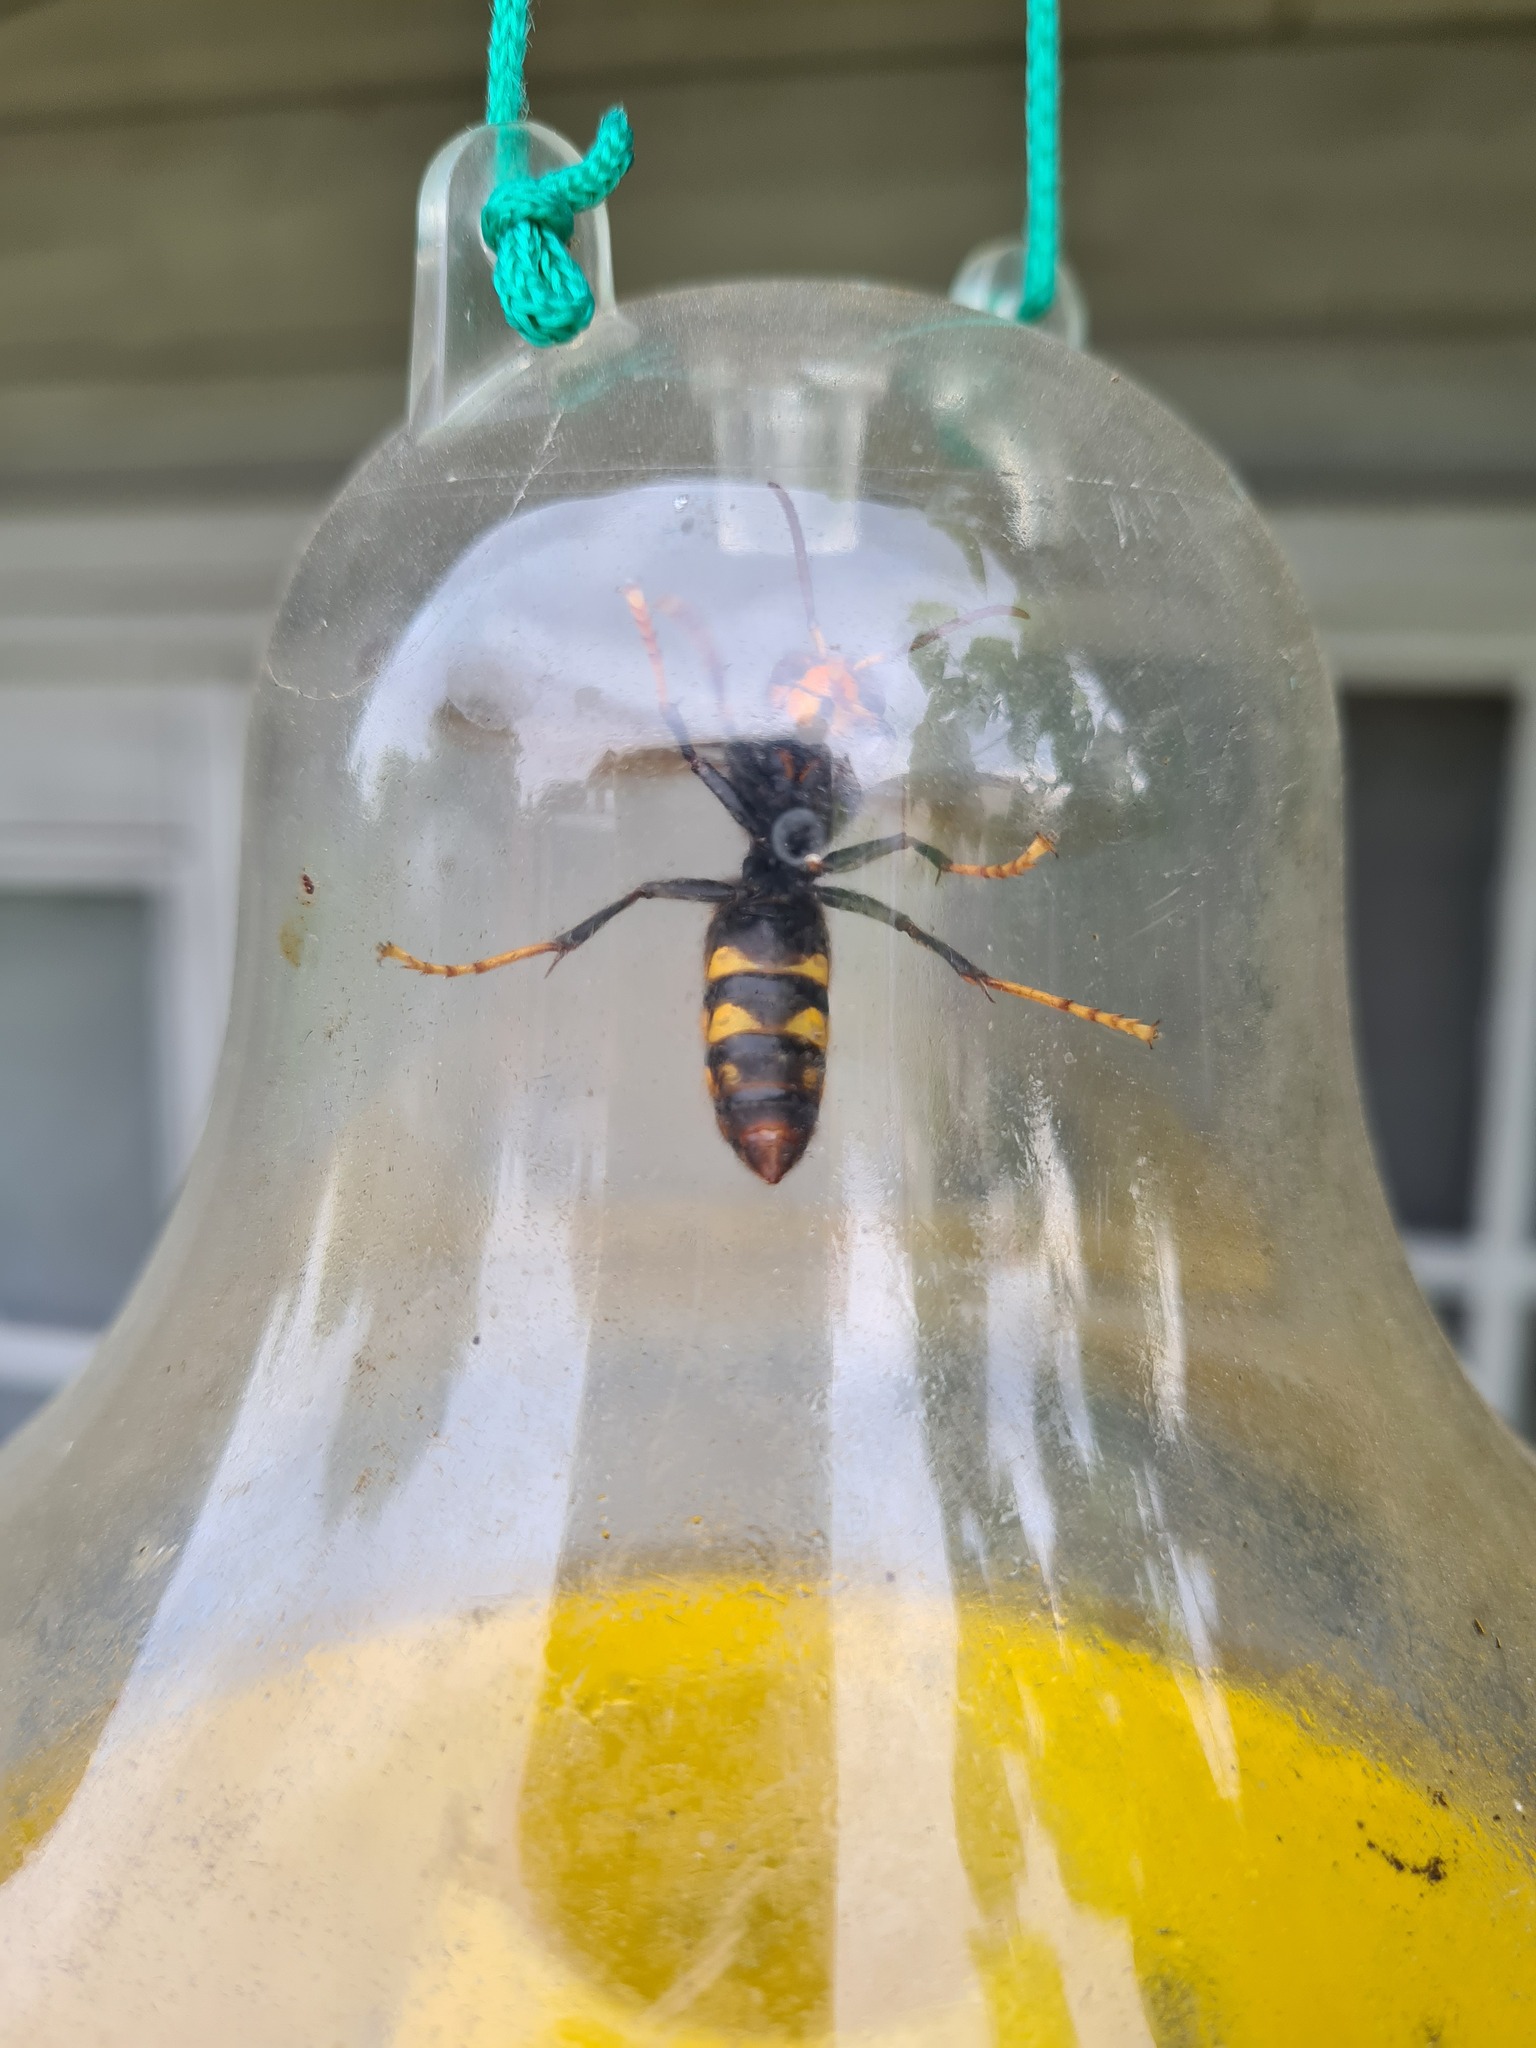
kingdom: Animalia
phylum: Arthropoda
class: Insecta
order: Hymenoptera
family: Vespidae
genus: Vespa
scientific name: Vespa velutina
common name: Asian hornet
